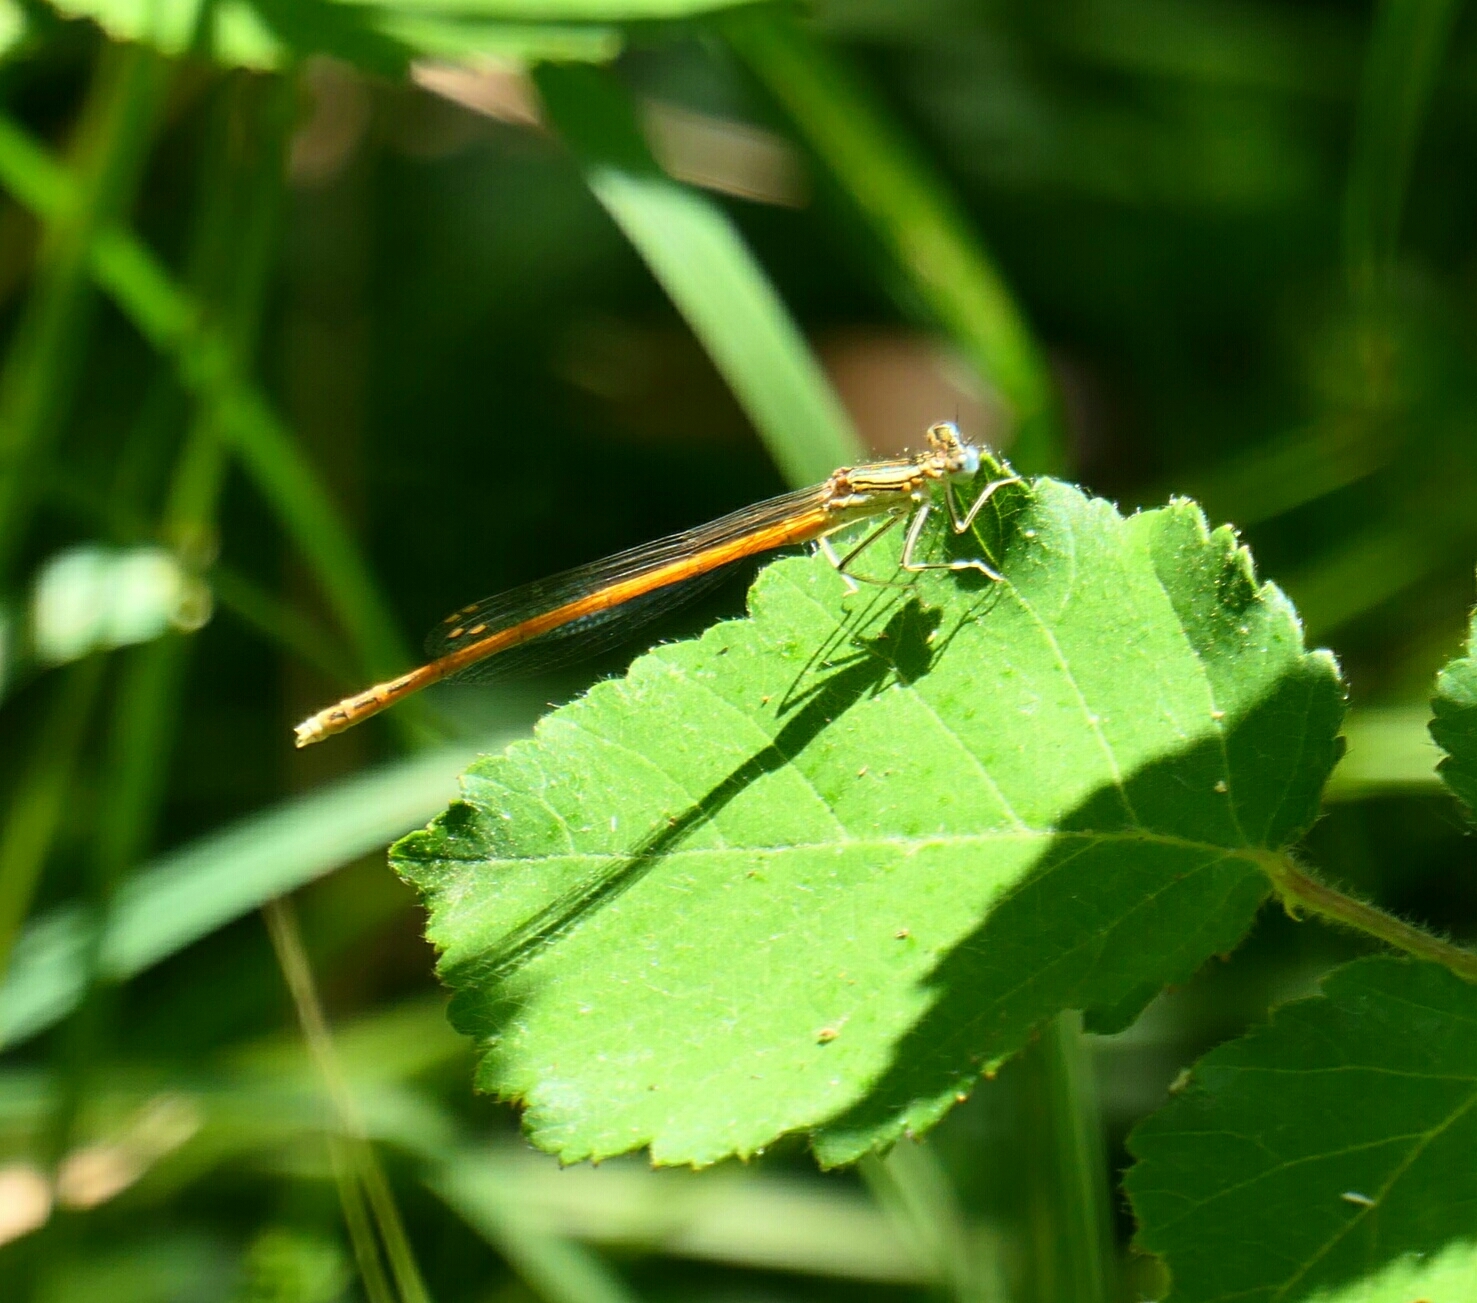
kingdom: Animalia
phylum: Arthropoda
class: Insecta
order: Odonata
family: Platycnemididae
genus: Platycnemis
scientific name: Platycnemis acutipennis
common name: Orange featherleg
